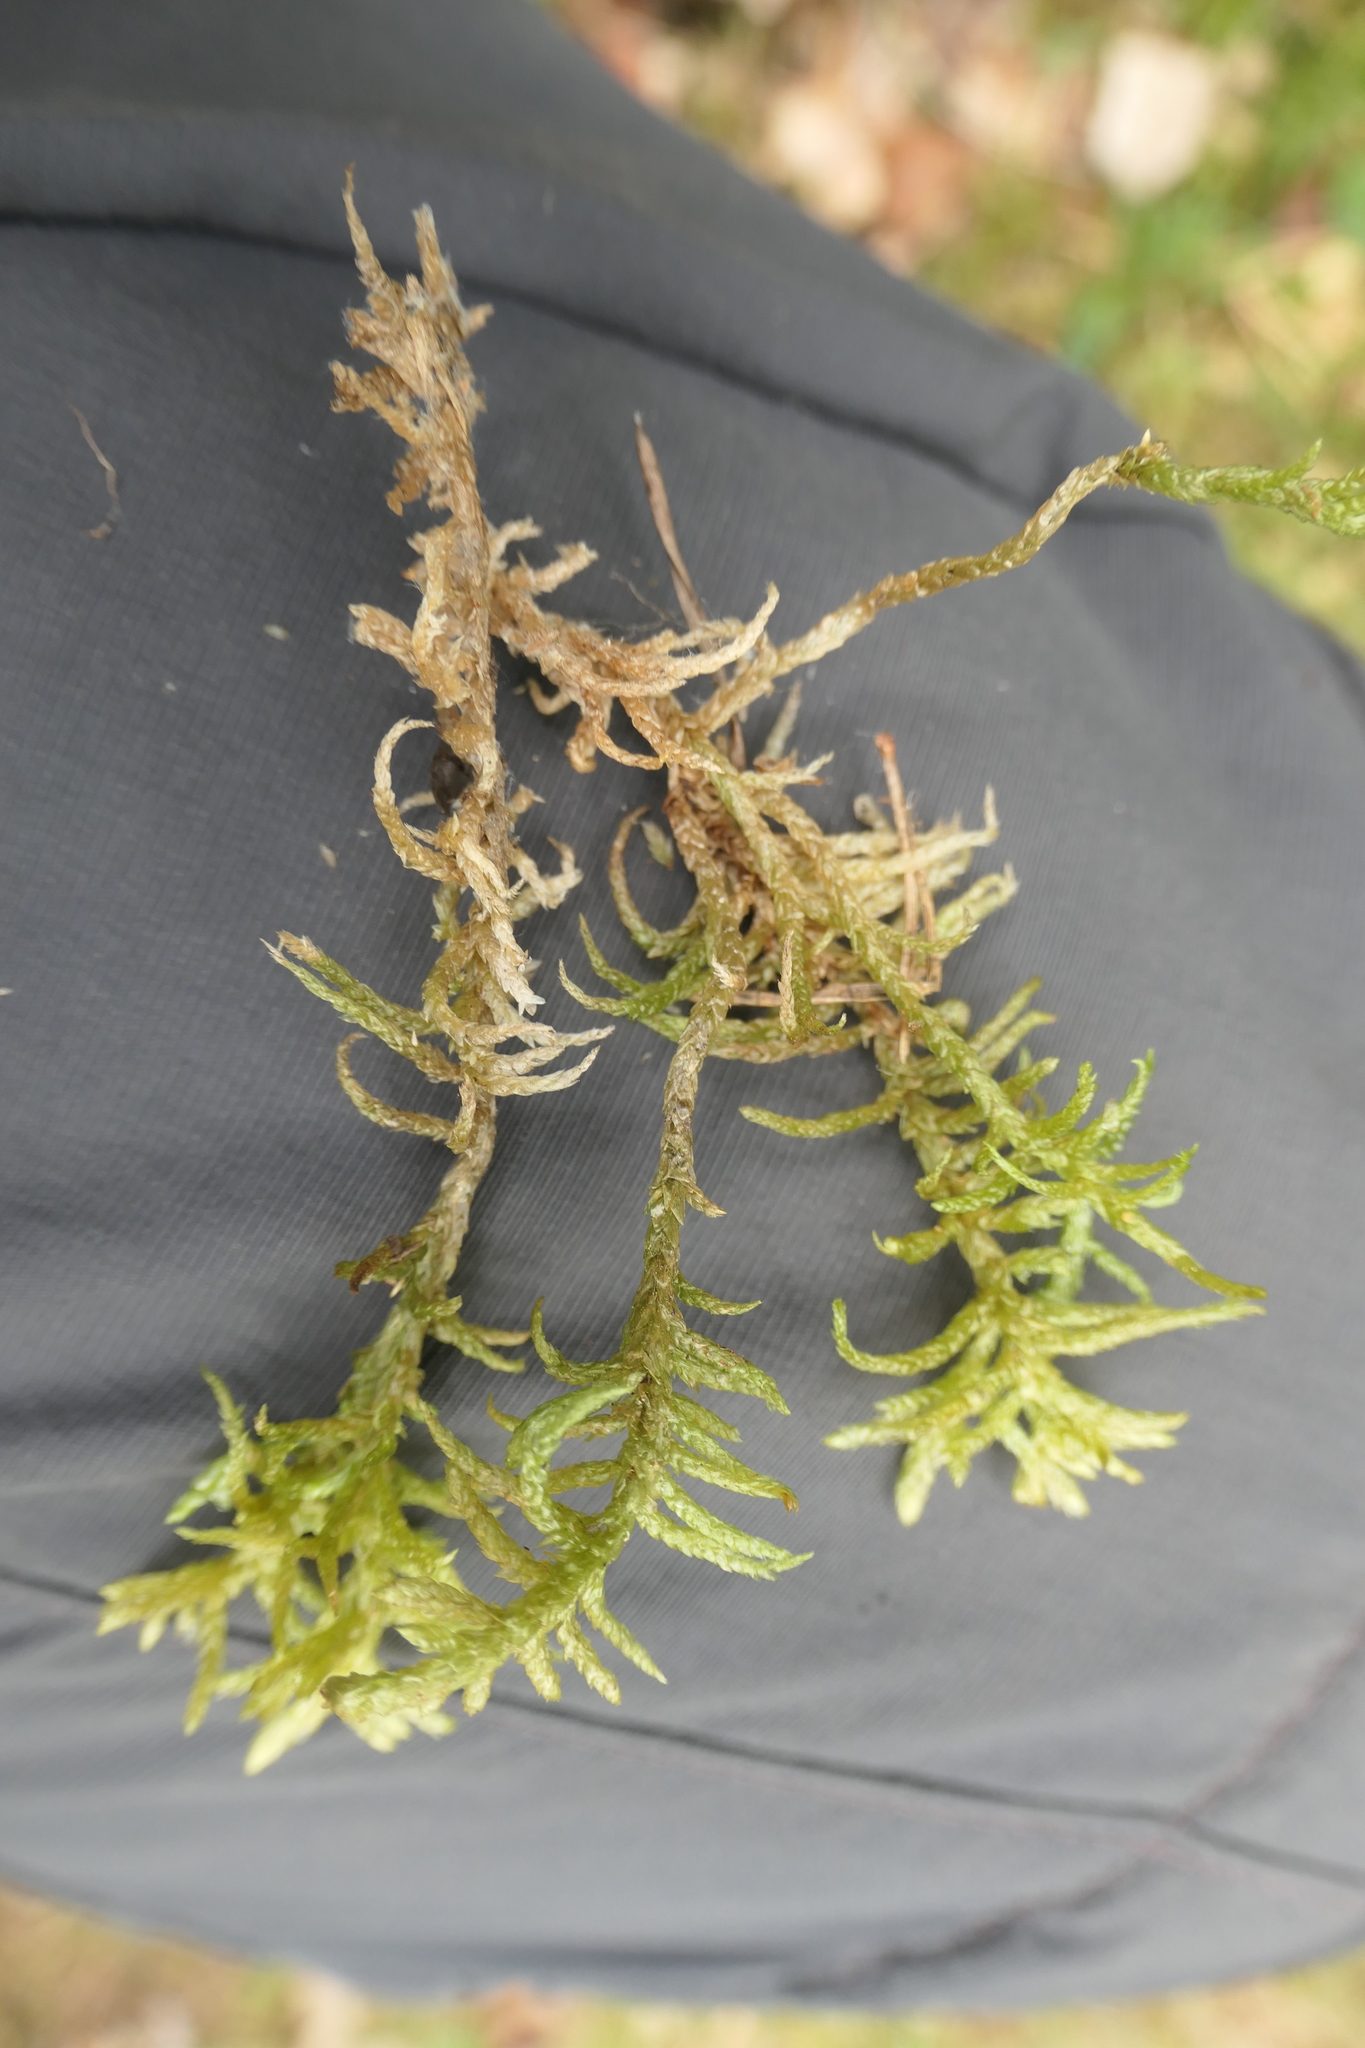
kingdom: Plantae
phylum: Bryophyta
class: Bryopsida
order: Hypnales
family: Brachytheciaceae
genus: Pseudoscleropodium
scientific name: Pseudoscleropodium purum
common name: Neat feather-moss
